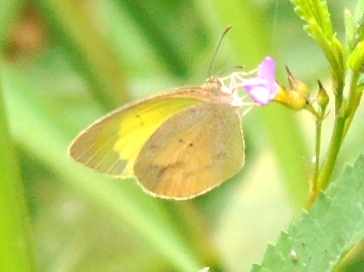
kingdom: Animalia
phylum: Arthropoda
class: Insecta
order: Lepidoptera
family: Pieridae
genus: Eurema
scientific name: Eurema daira
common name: Barred sulphur
